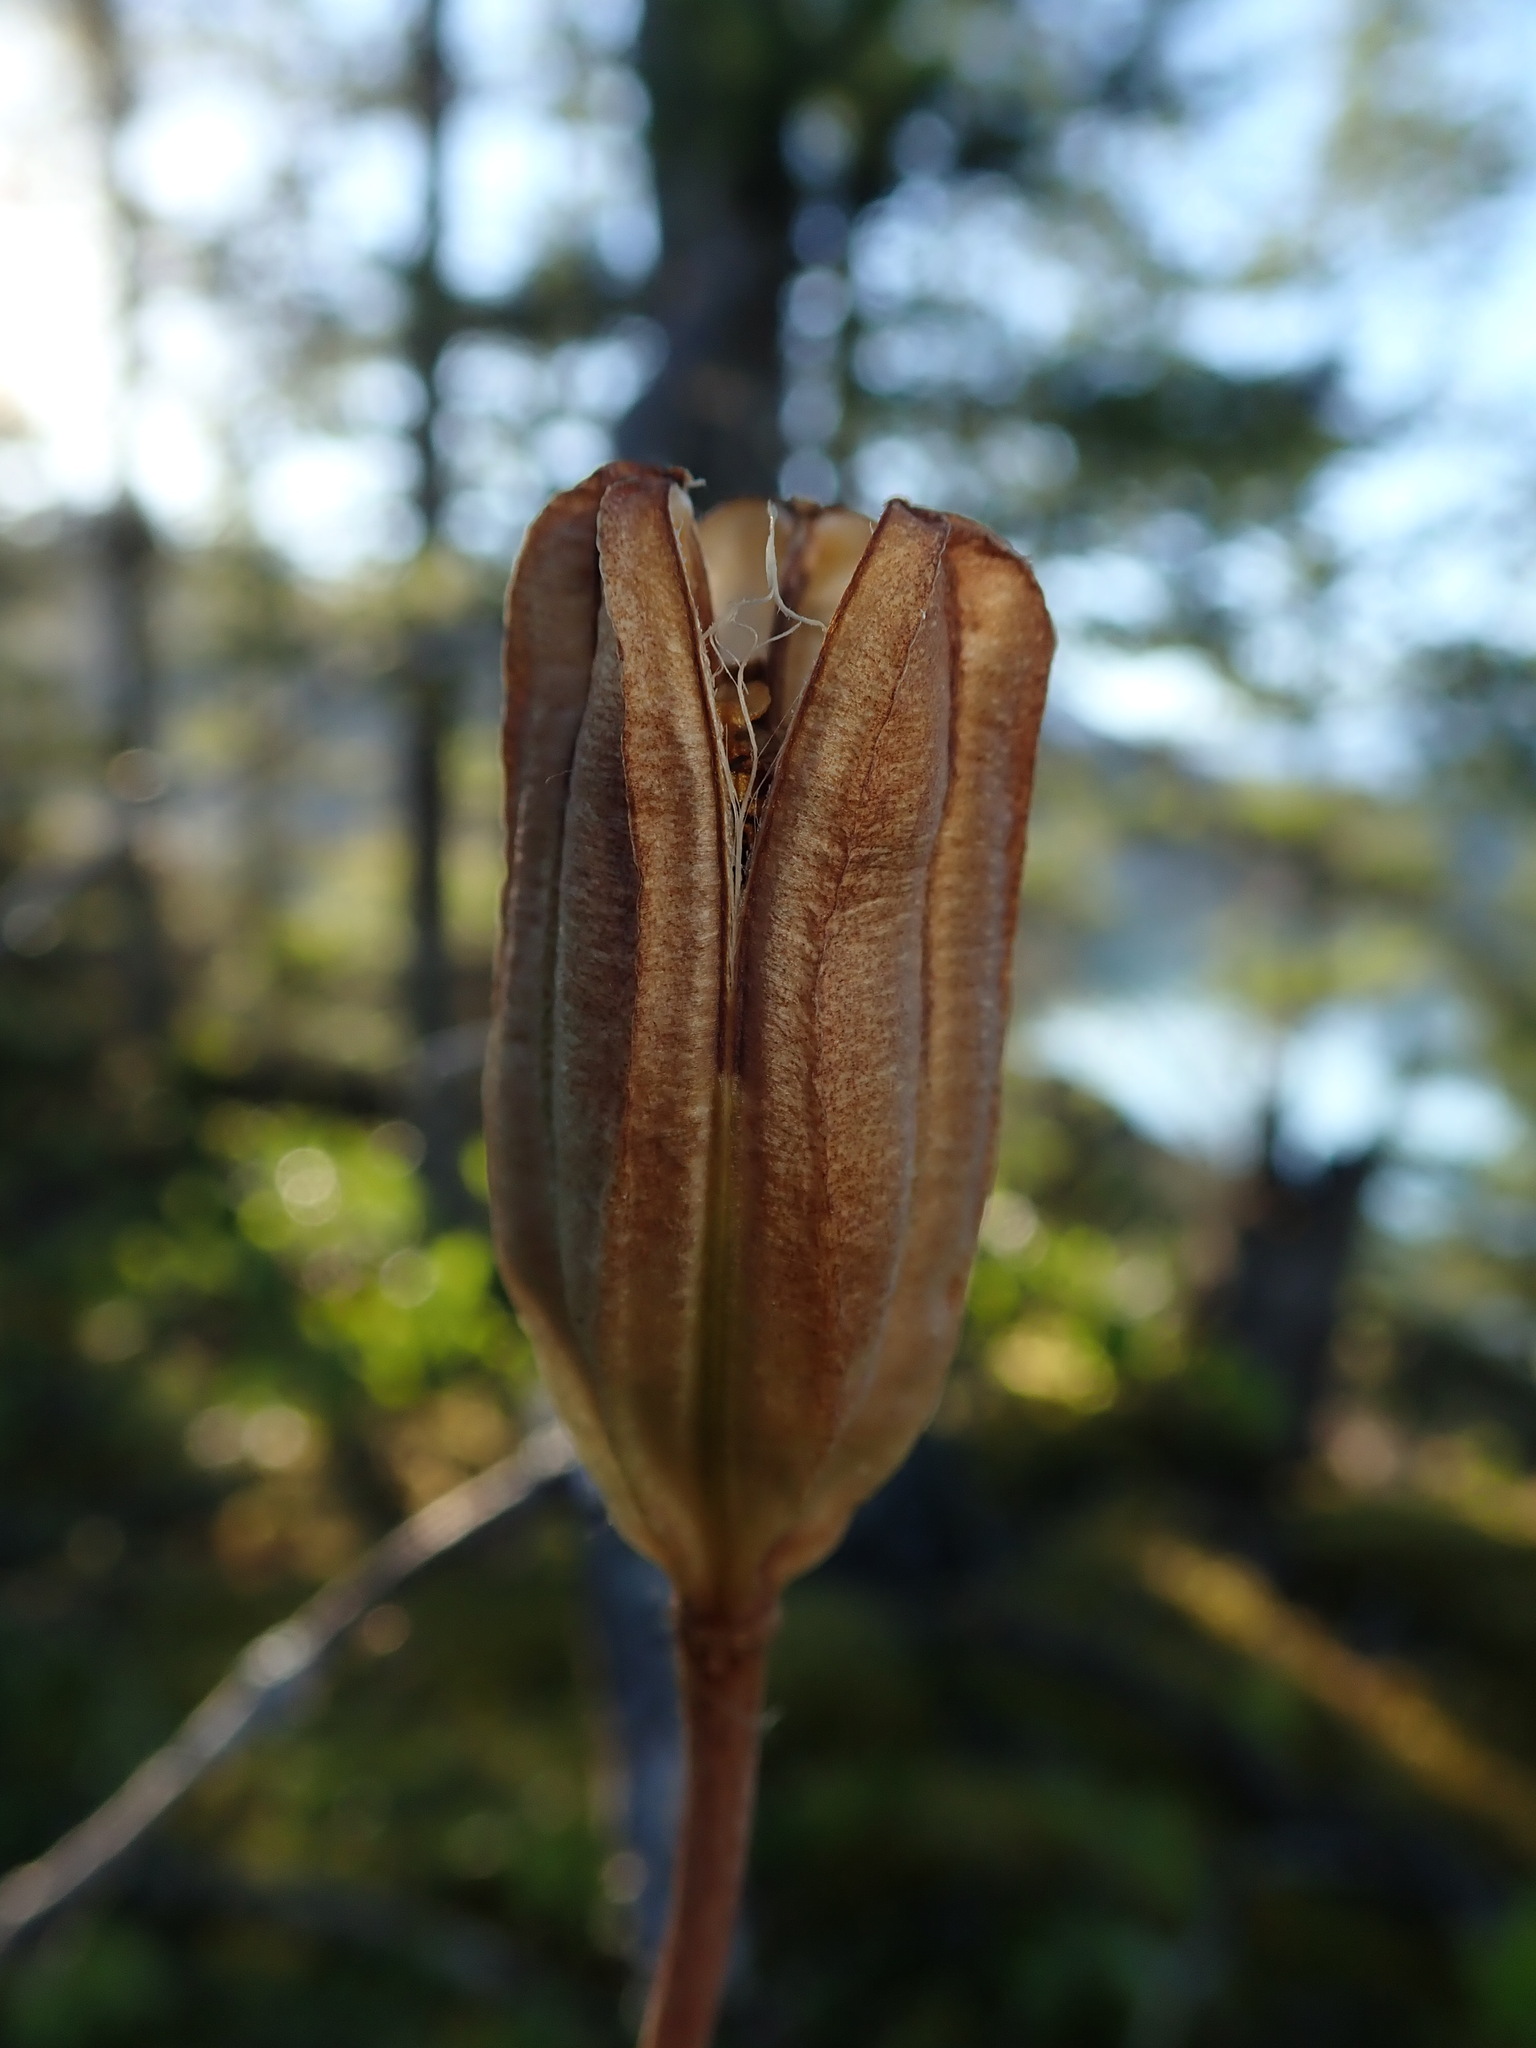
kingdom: Plantae
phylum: Tracheophyta
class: Liliopsida
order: Liliales
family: Liliaceae
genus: Lilium
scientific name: Lilium columbianum
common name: Columbia lily
